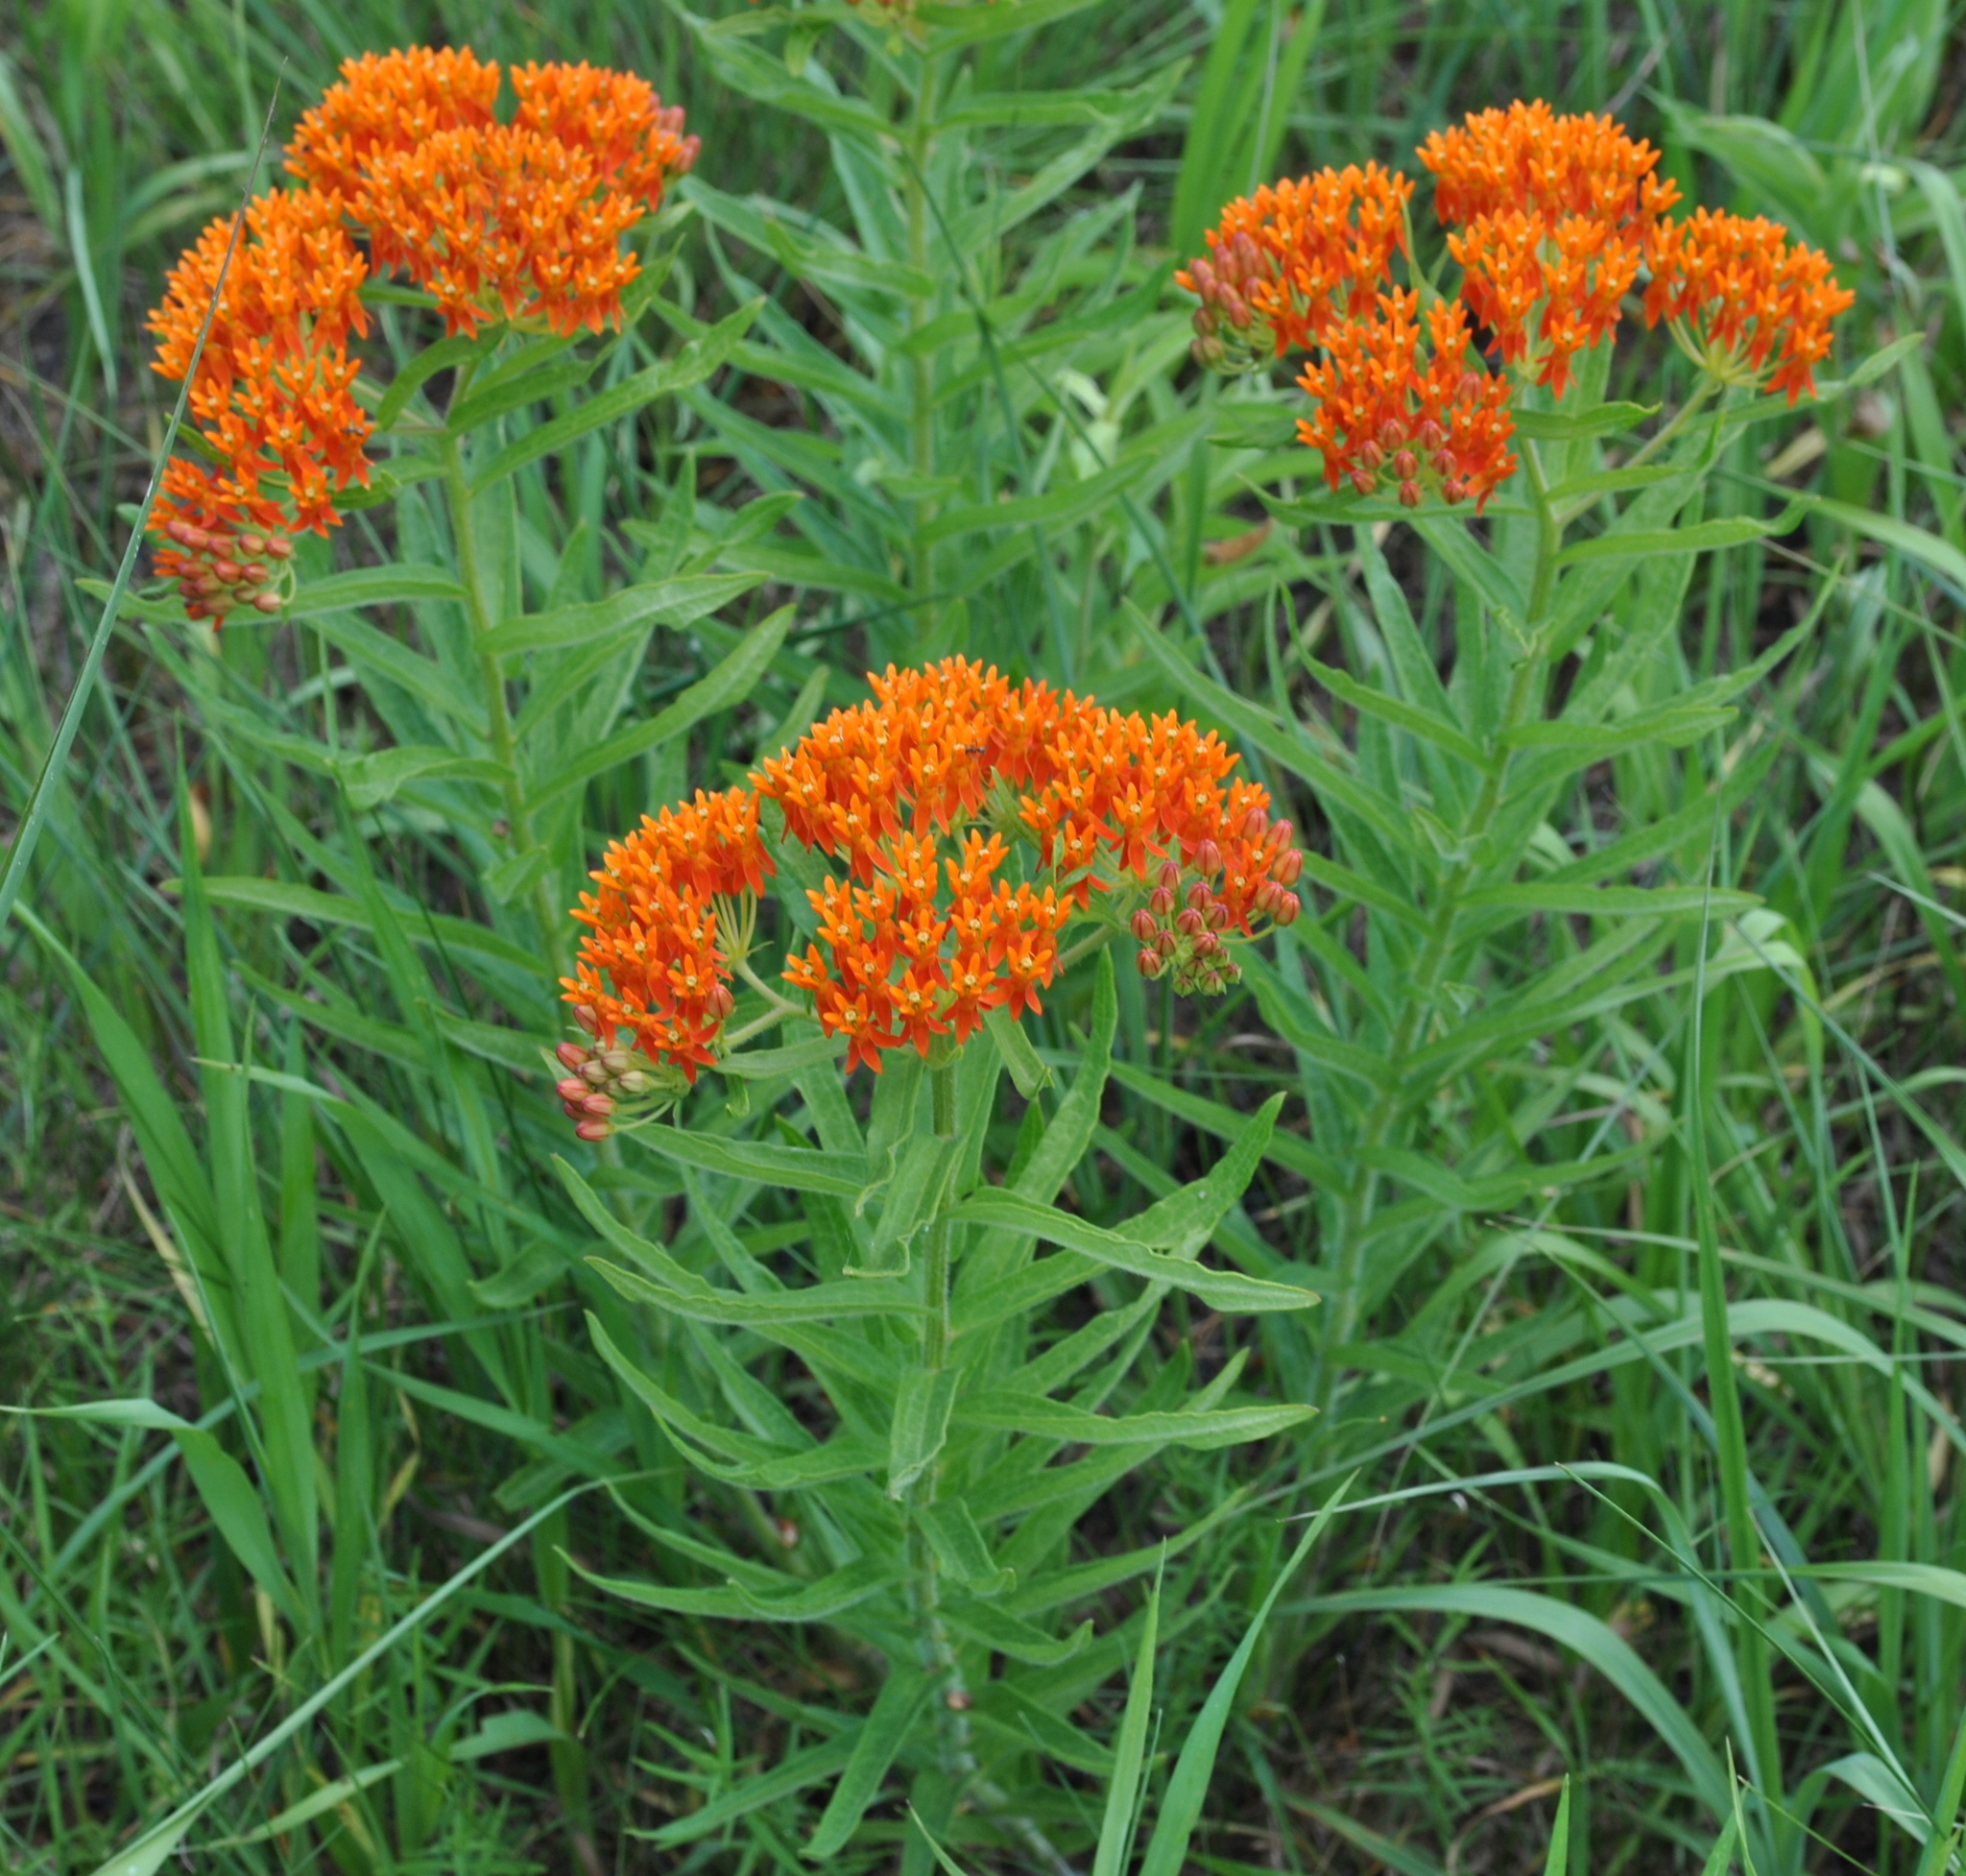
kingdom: Plantae
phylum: Tracheophyta
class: Magnoliopsida
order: Gentianales
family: Apocynaceae
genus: Asclepias
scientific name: Asclepias tuberosa
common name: Butterfly milkweed
